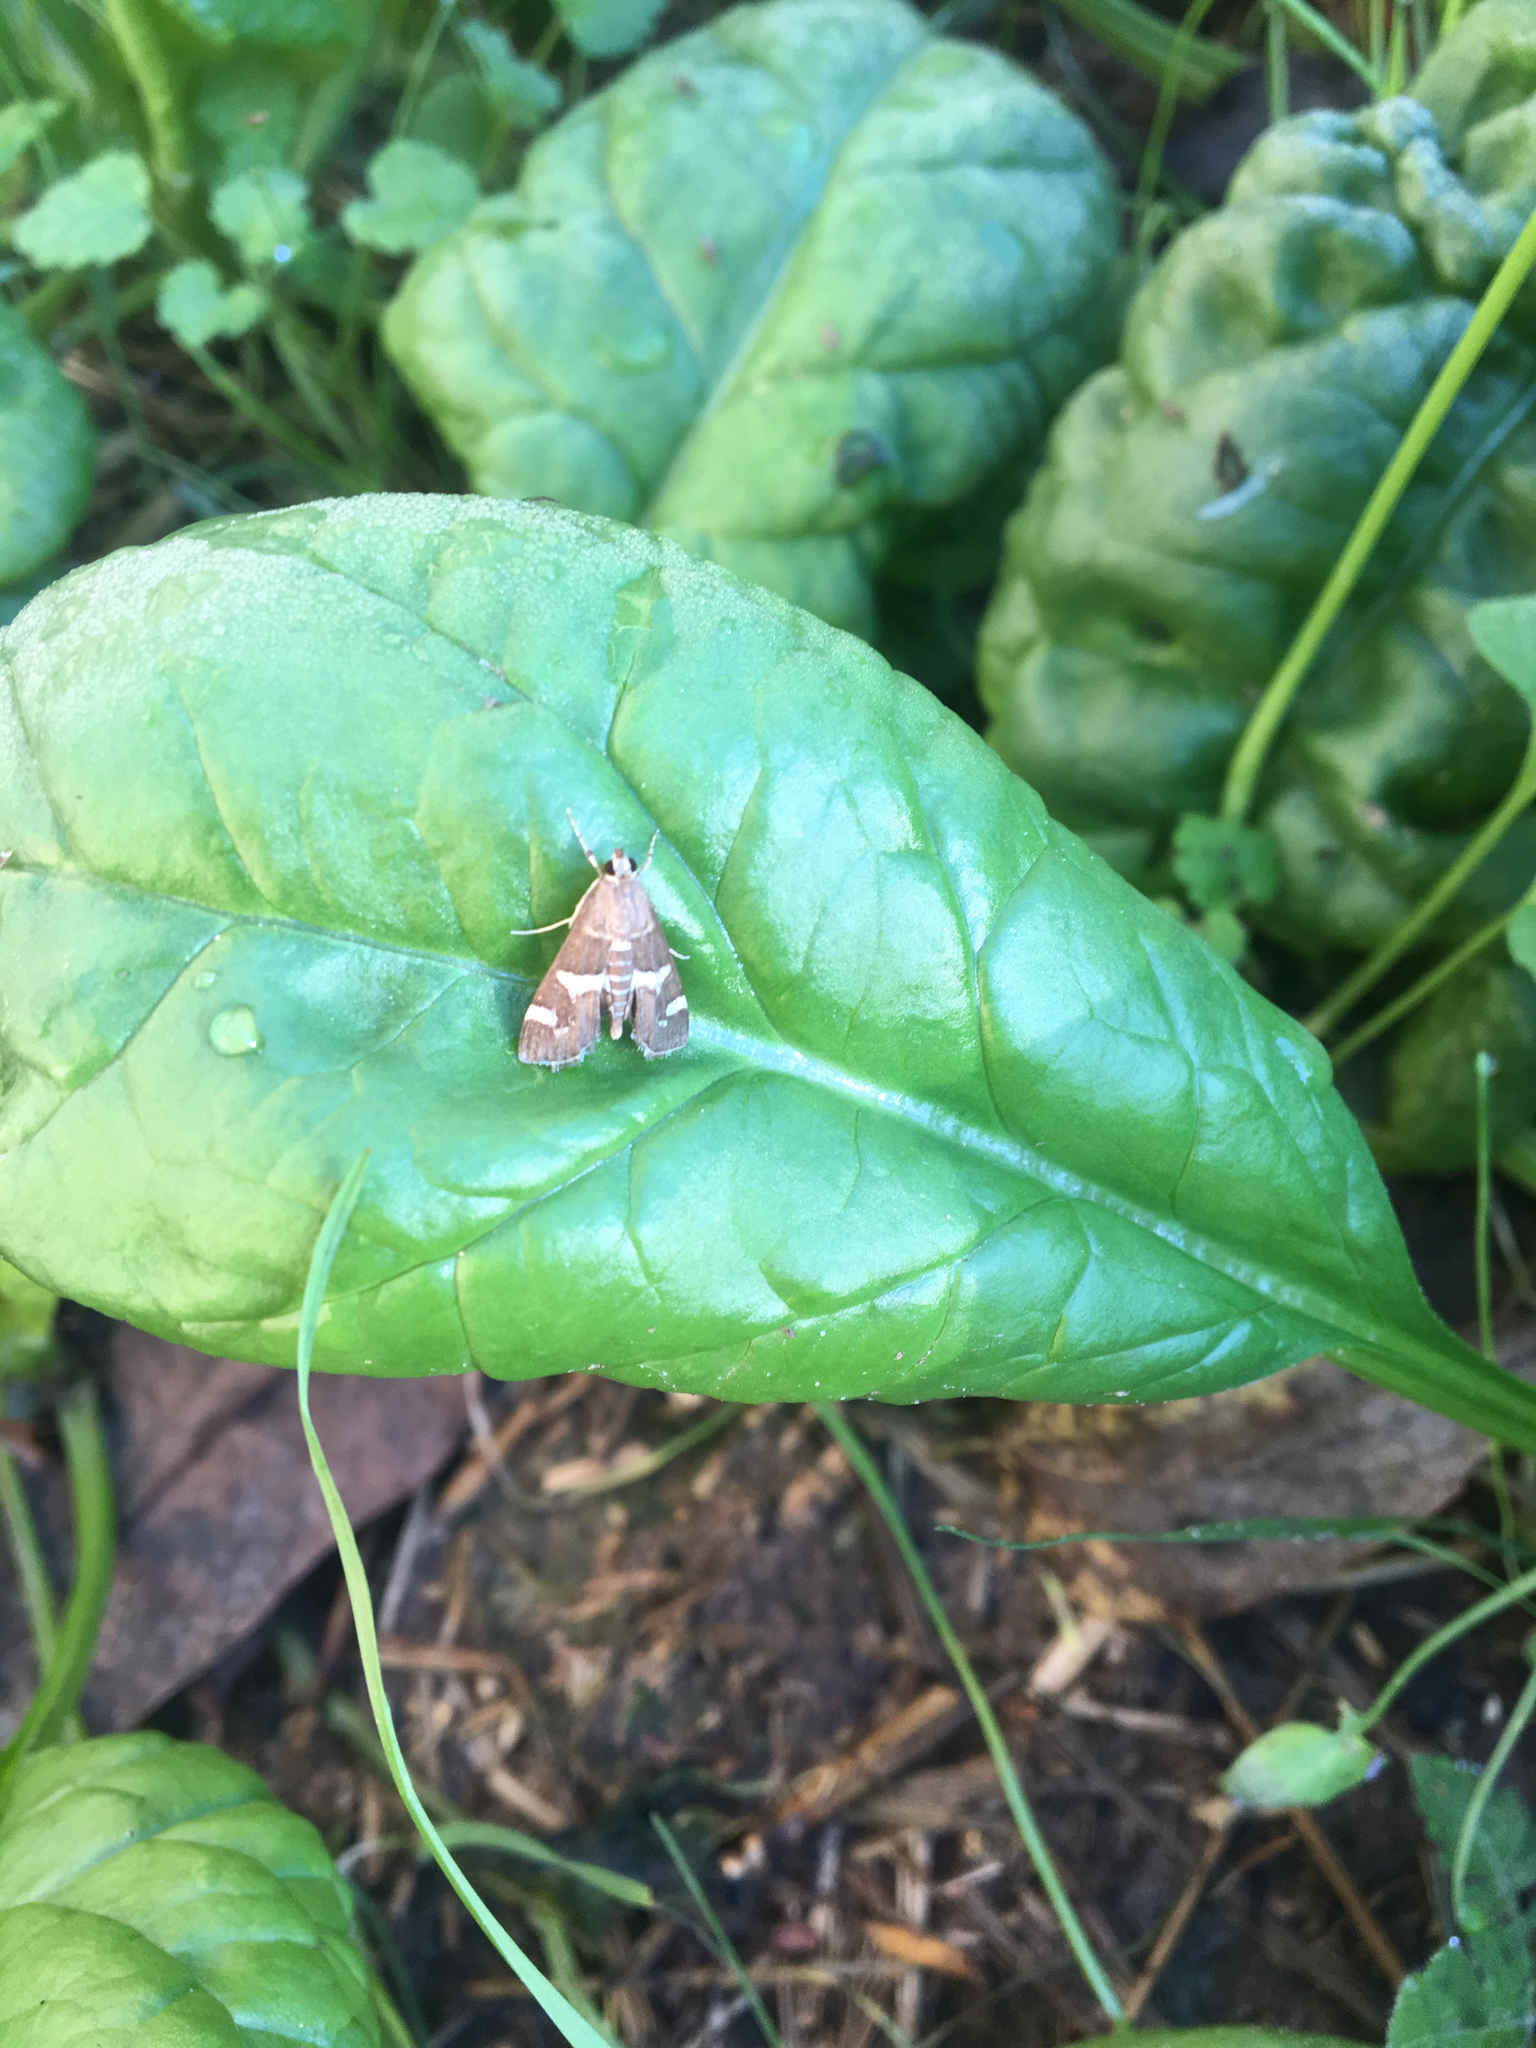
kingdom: Animalia
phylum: Arthropoda
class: Insecta
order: Lepidoptera
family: Crambidae
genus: Spoladea
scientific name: Spoladea recurvalis
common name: Beet webworm moth
